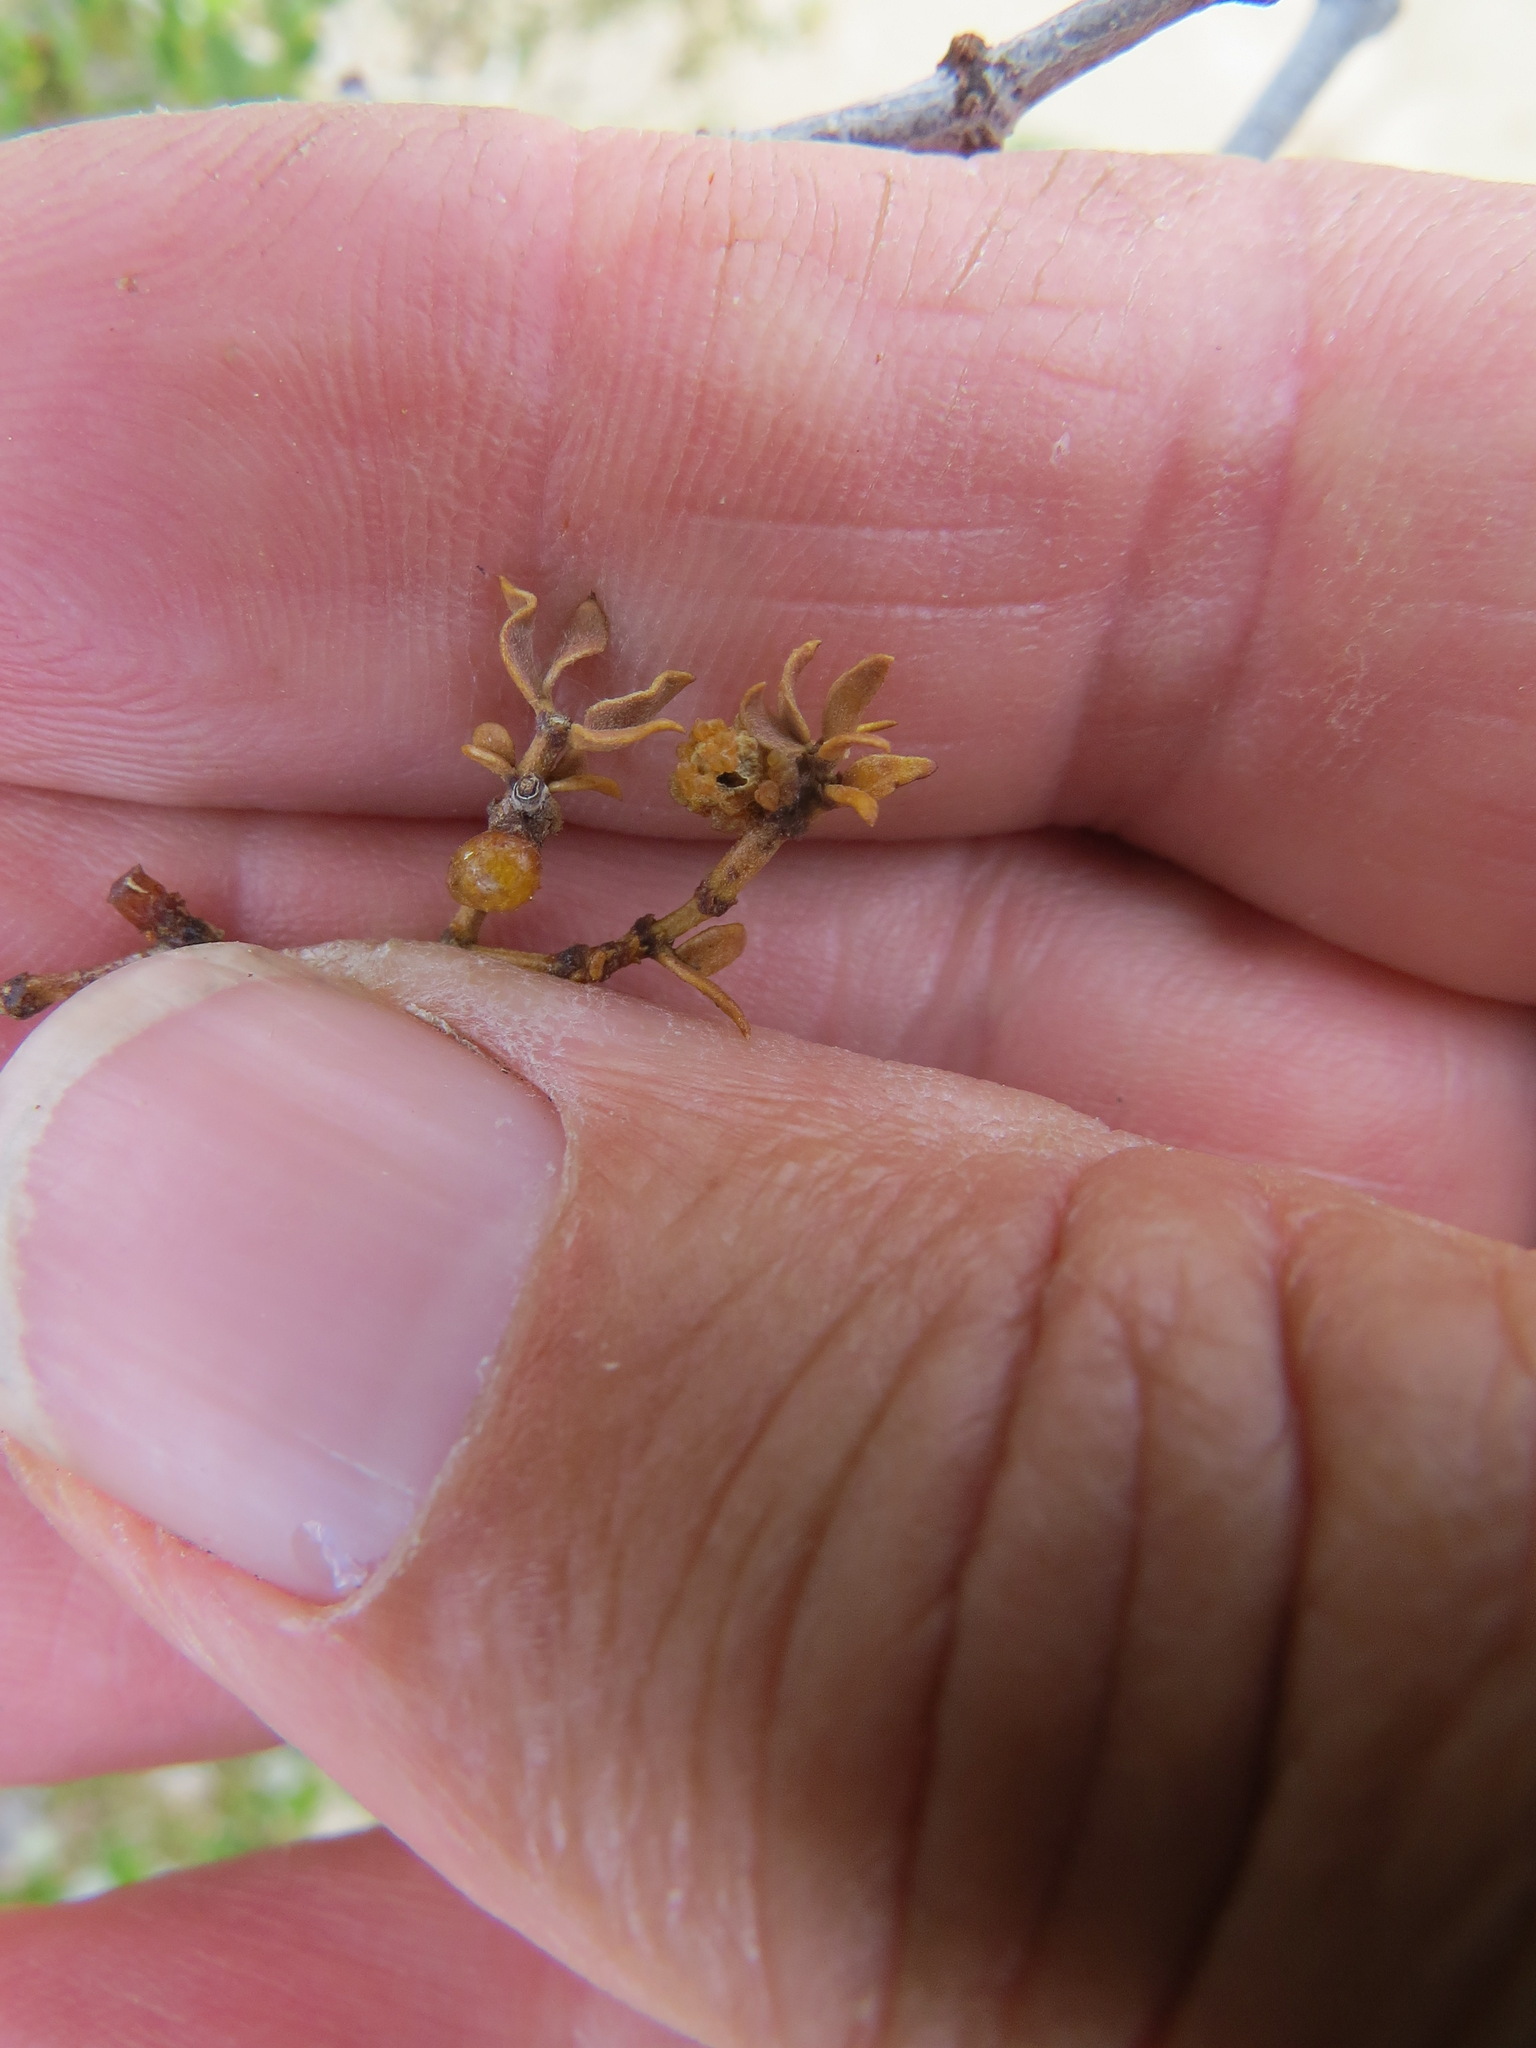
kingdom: Animalia
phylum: Arthropoda
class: Insecta
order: Diptera
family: Cecidomyiidae
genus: Asphondylia
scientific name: Asphondylia resinosa
